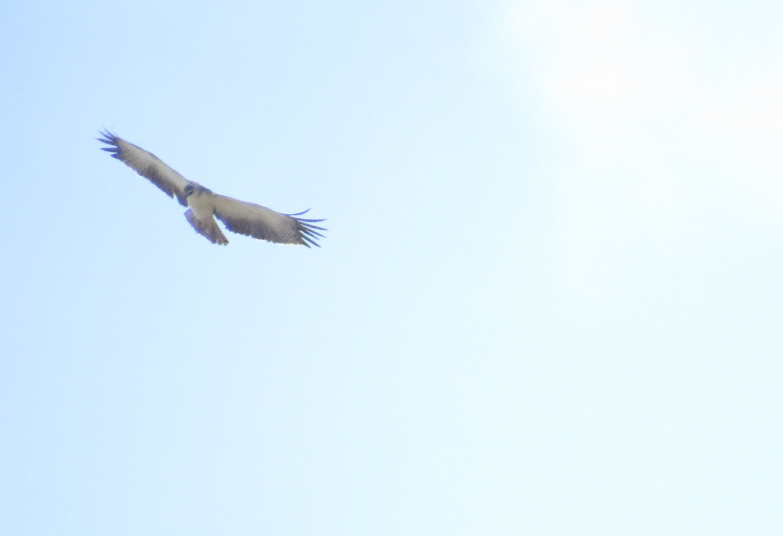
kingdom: Animalia
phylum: Chordata
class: Aves
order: Accipitriformes
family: Accipitridae
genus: Buteo
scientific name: Buteo augur
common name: Augur buzzard
